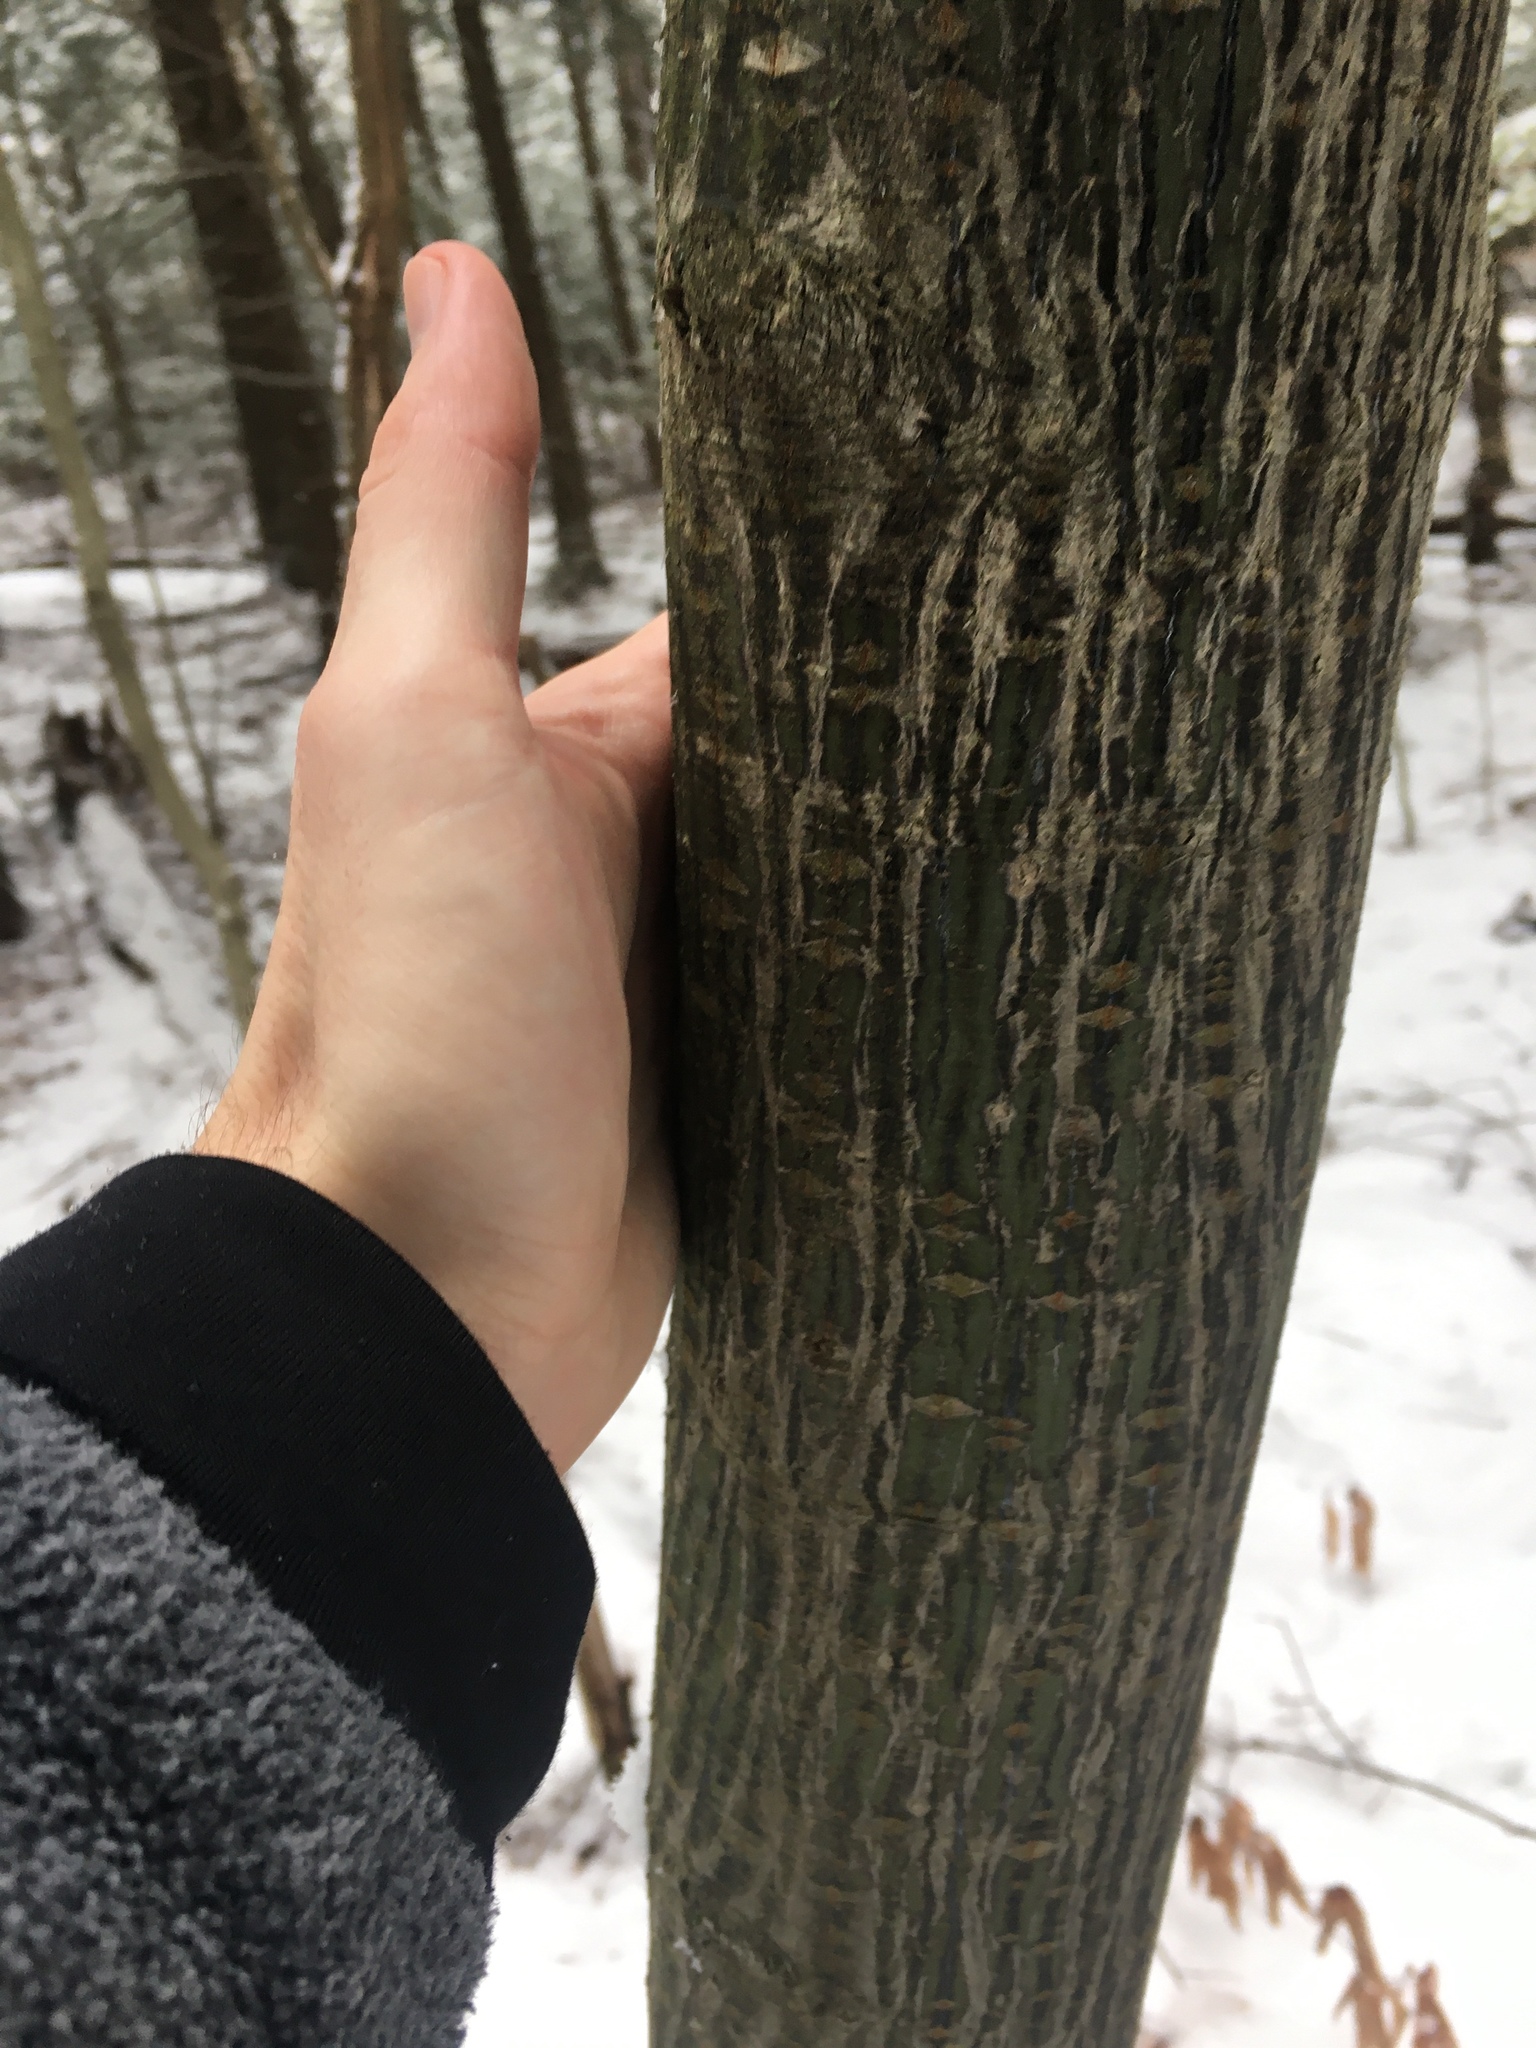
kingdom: Plantae
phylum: Tracheophyta
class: Magnoliopsida
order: Sapindales
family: Sapindaceae
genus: Acer
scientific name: Acer pensylvanicum
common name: Moosewood
